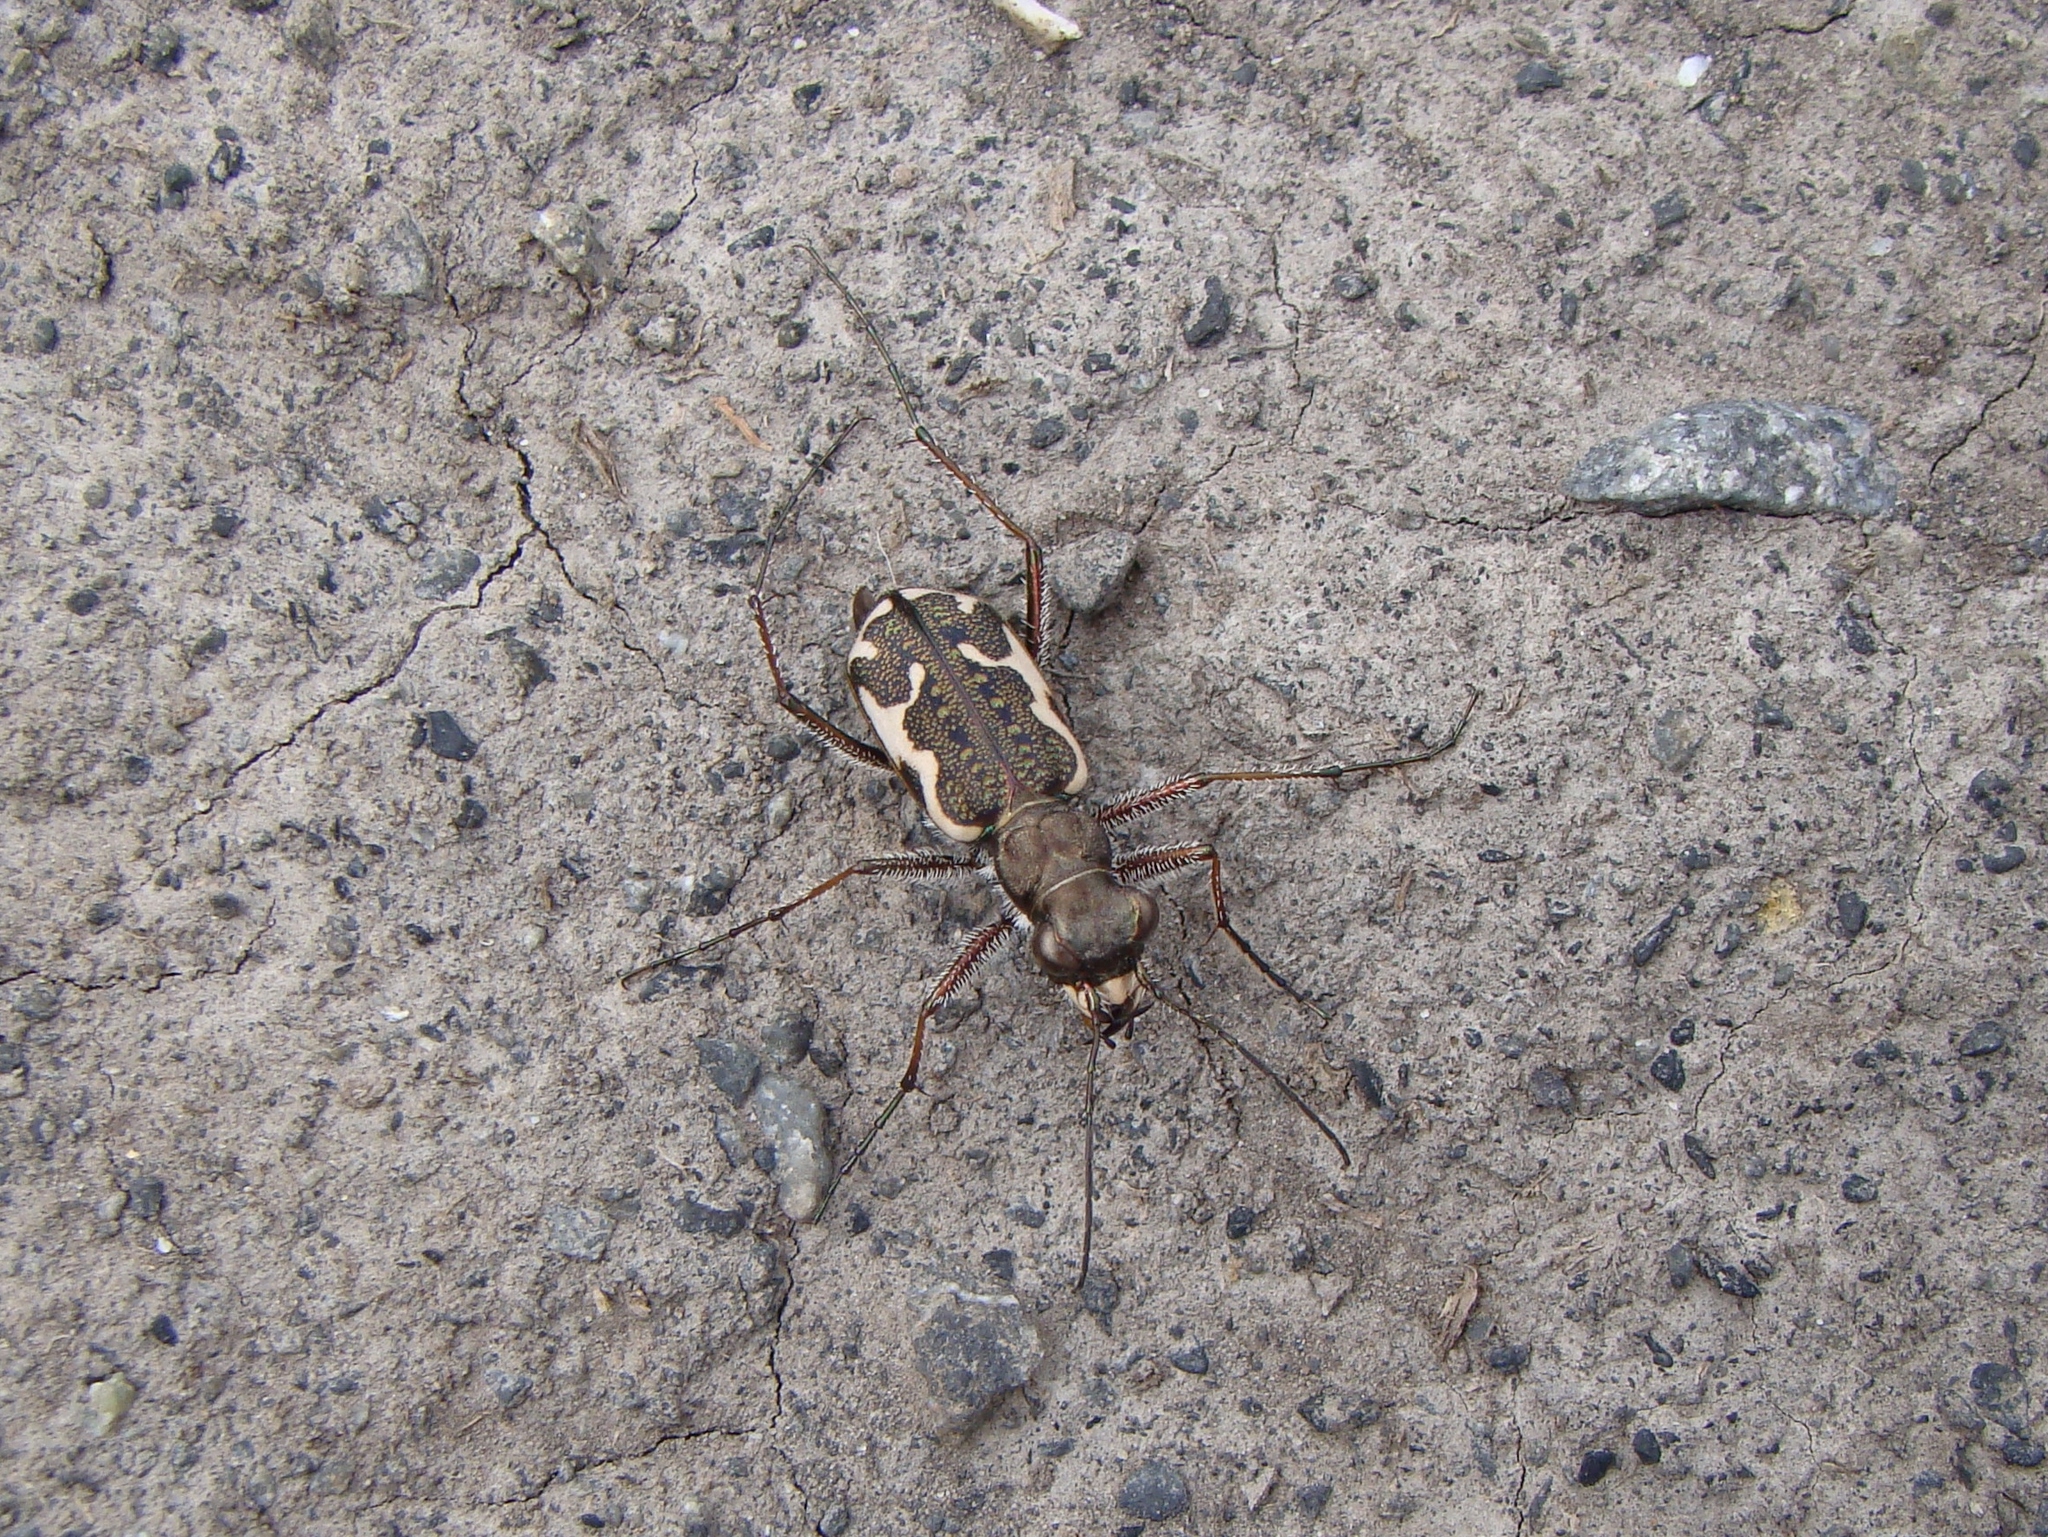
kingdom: Animalia
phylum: Arthropoda
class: Insecta
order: Coleoptera
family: Carabidae
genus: Neocicindela
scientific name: Neocicindela tuberculata
